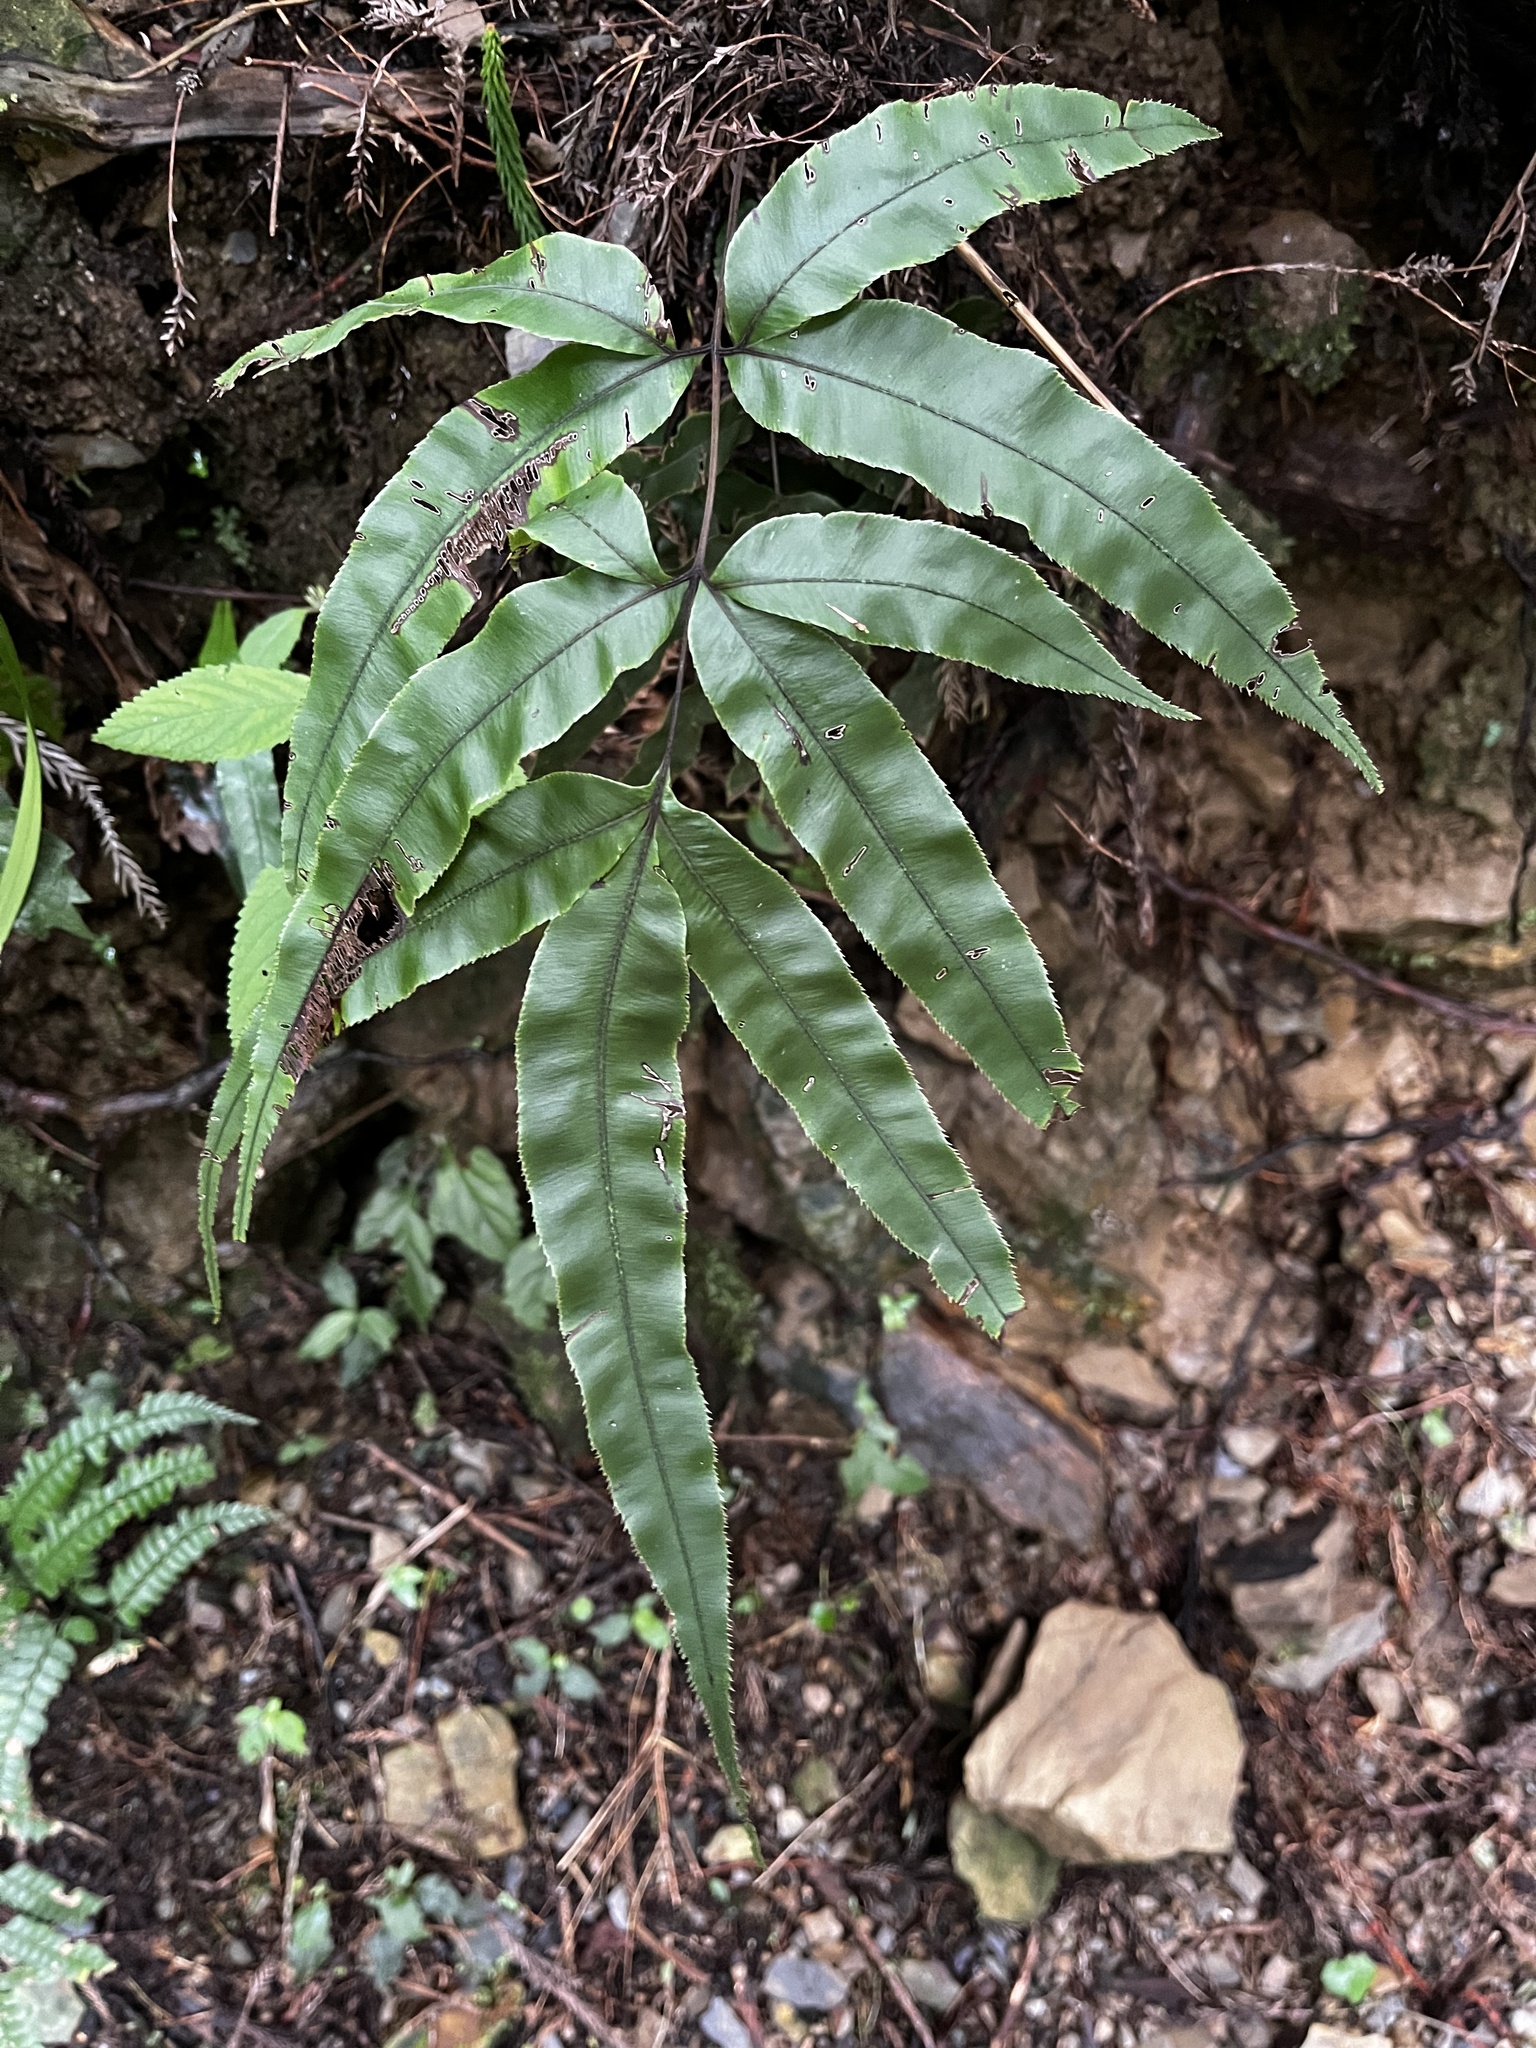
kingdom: Plantae
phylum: Tracheophyta
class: Polypodiopsida
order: Polypodiales
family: Pteridaceae
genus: Pteris
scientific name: Pteris cretica
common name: Ribbon fern
